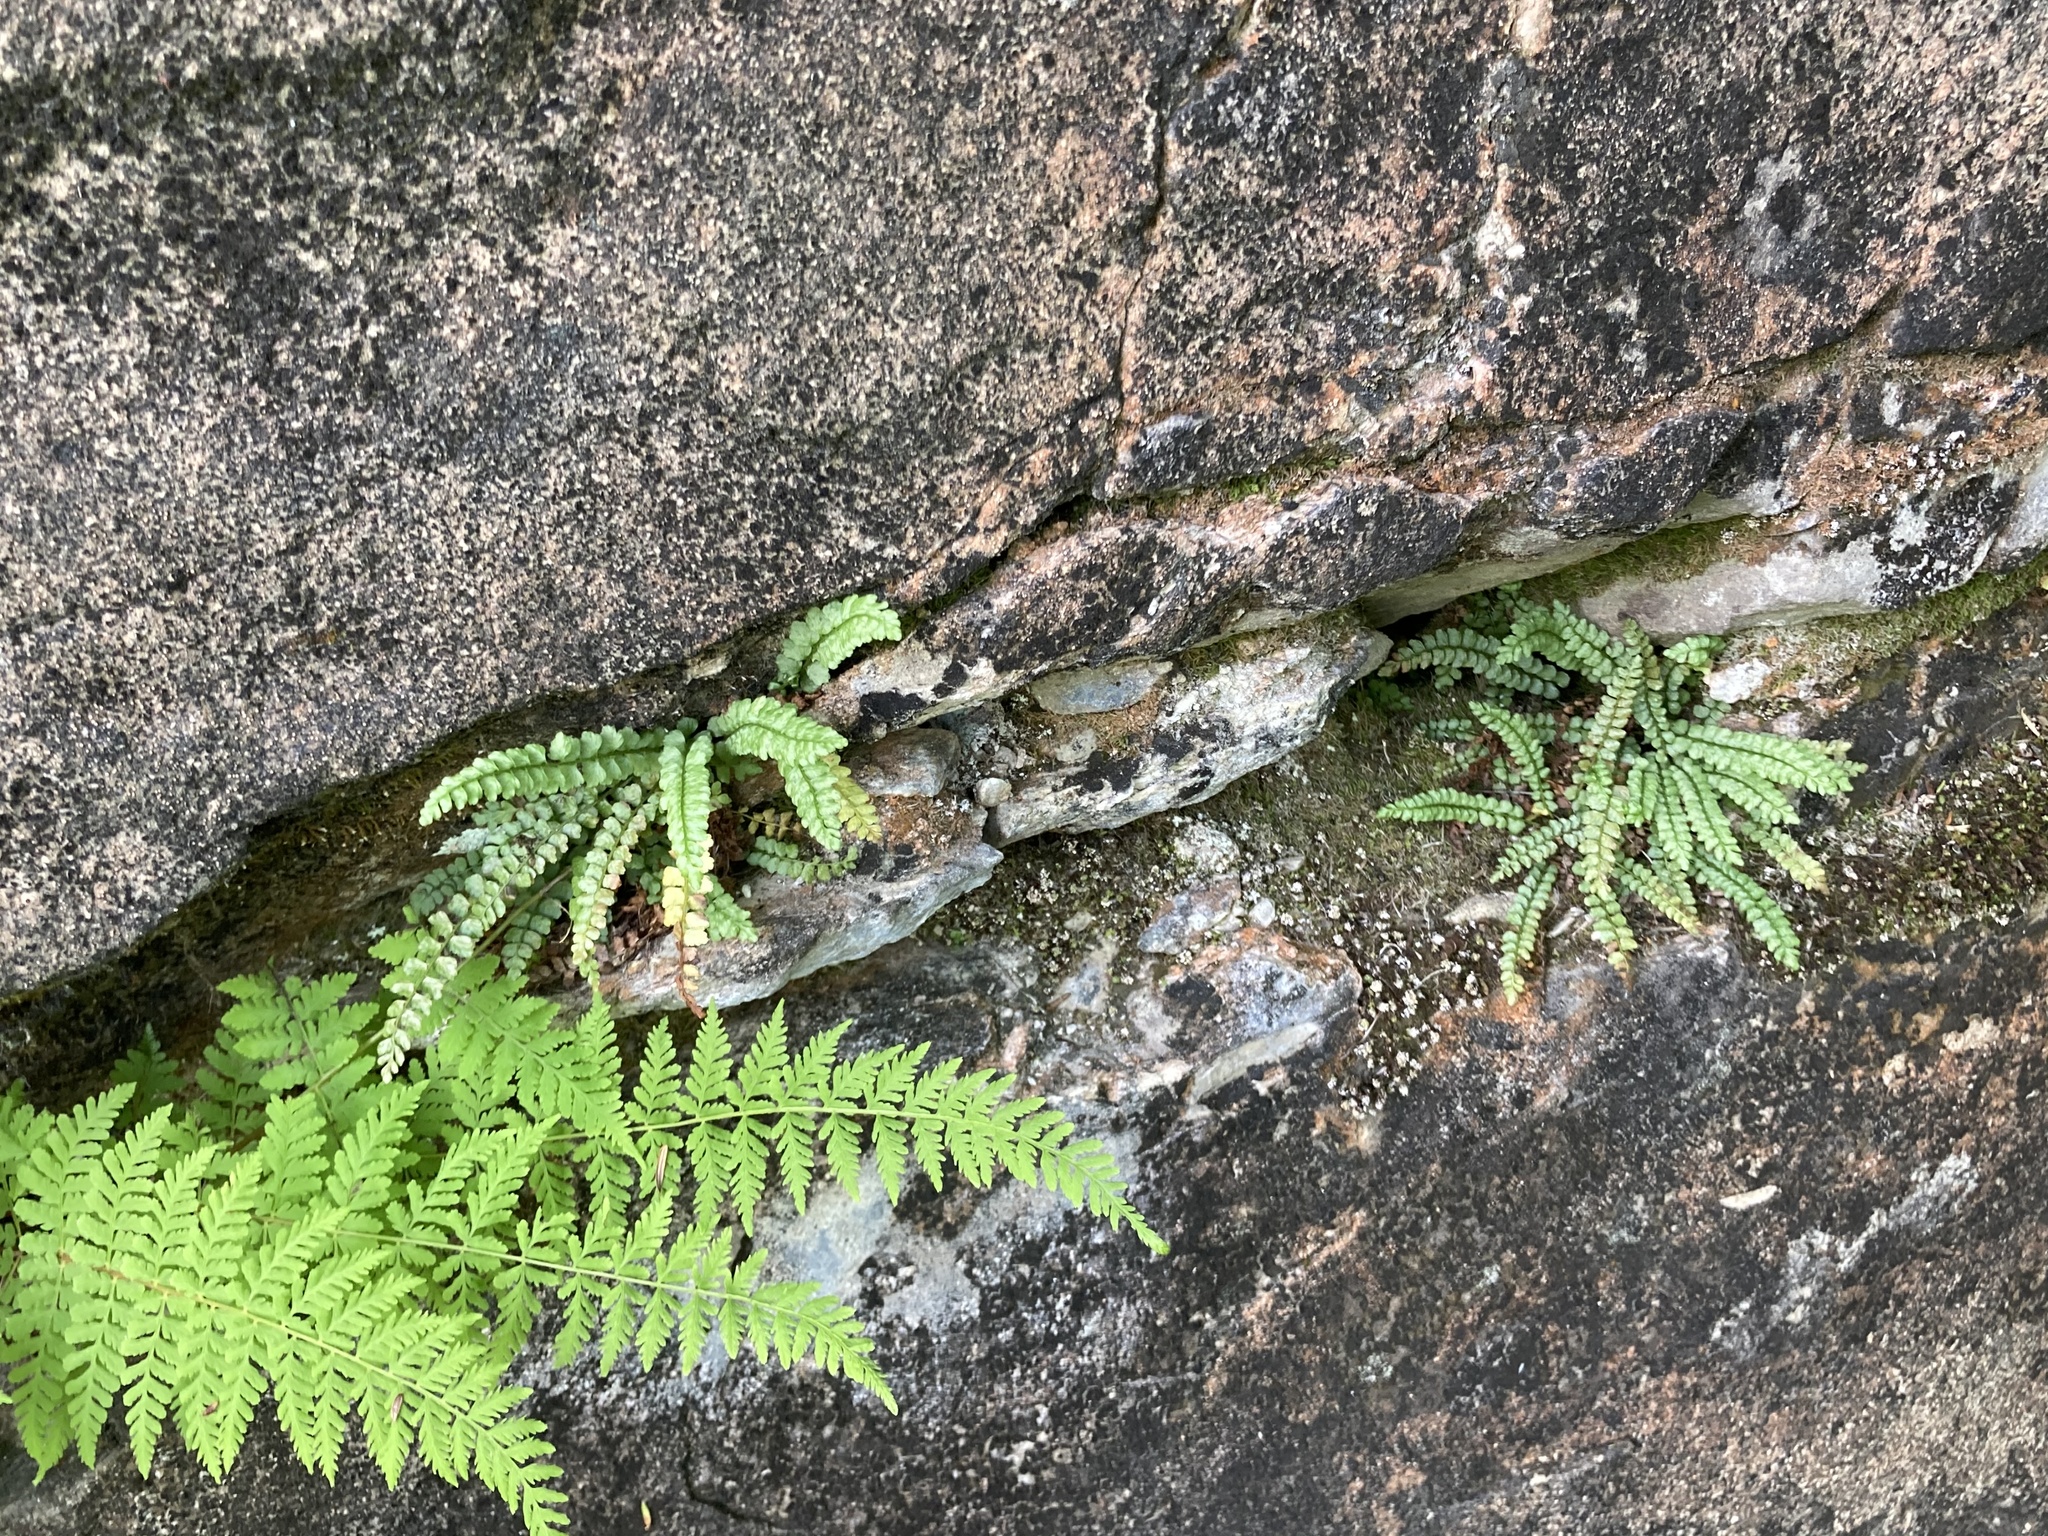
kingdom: Plantae
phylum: Tracheophyta
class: Polypodiopsida
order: Polypodiales
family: Aspleniaceae
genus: Asplenium
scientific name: Asplenium viride
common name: Green spleenwort
